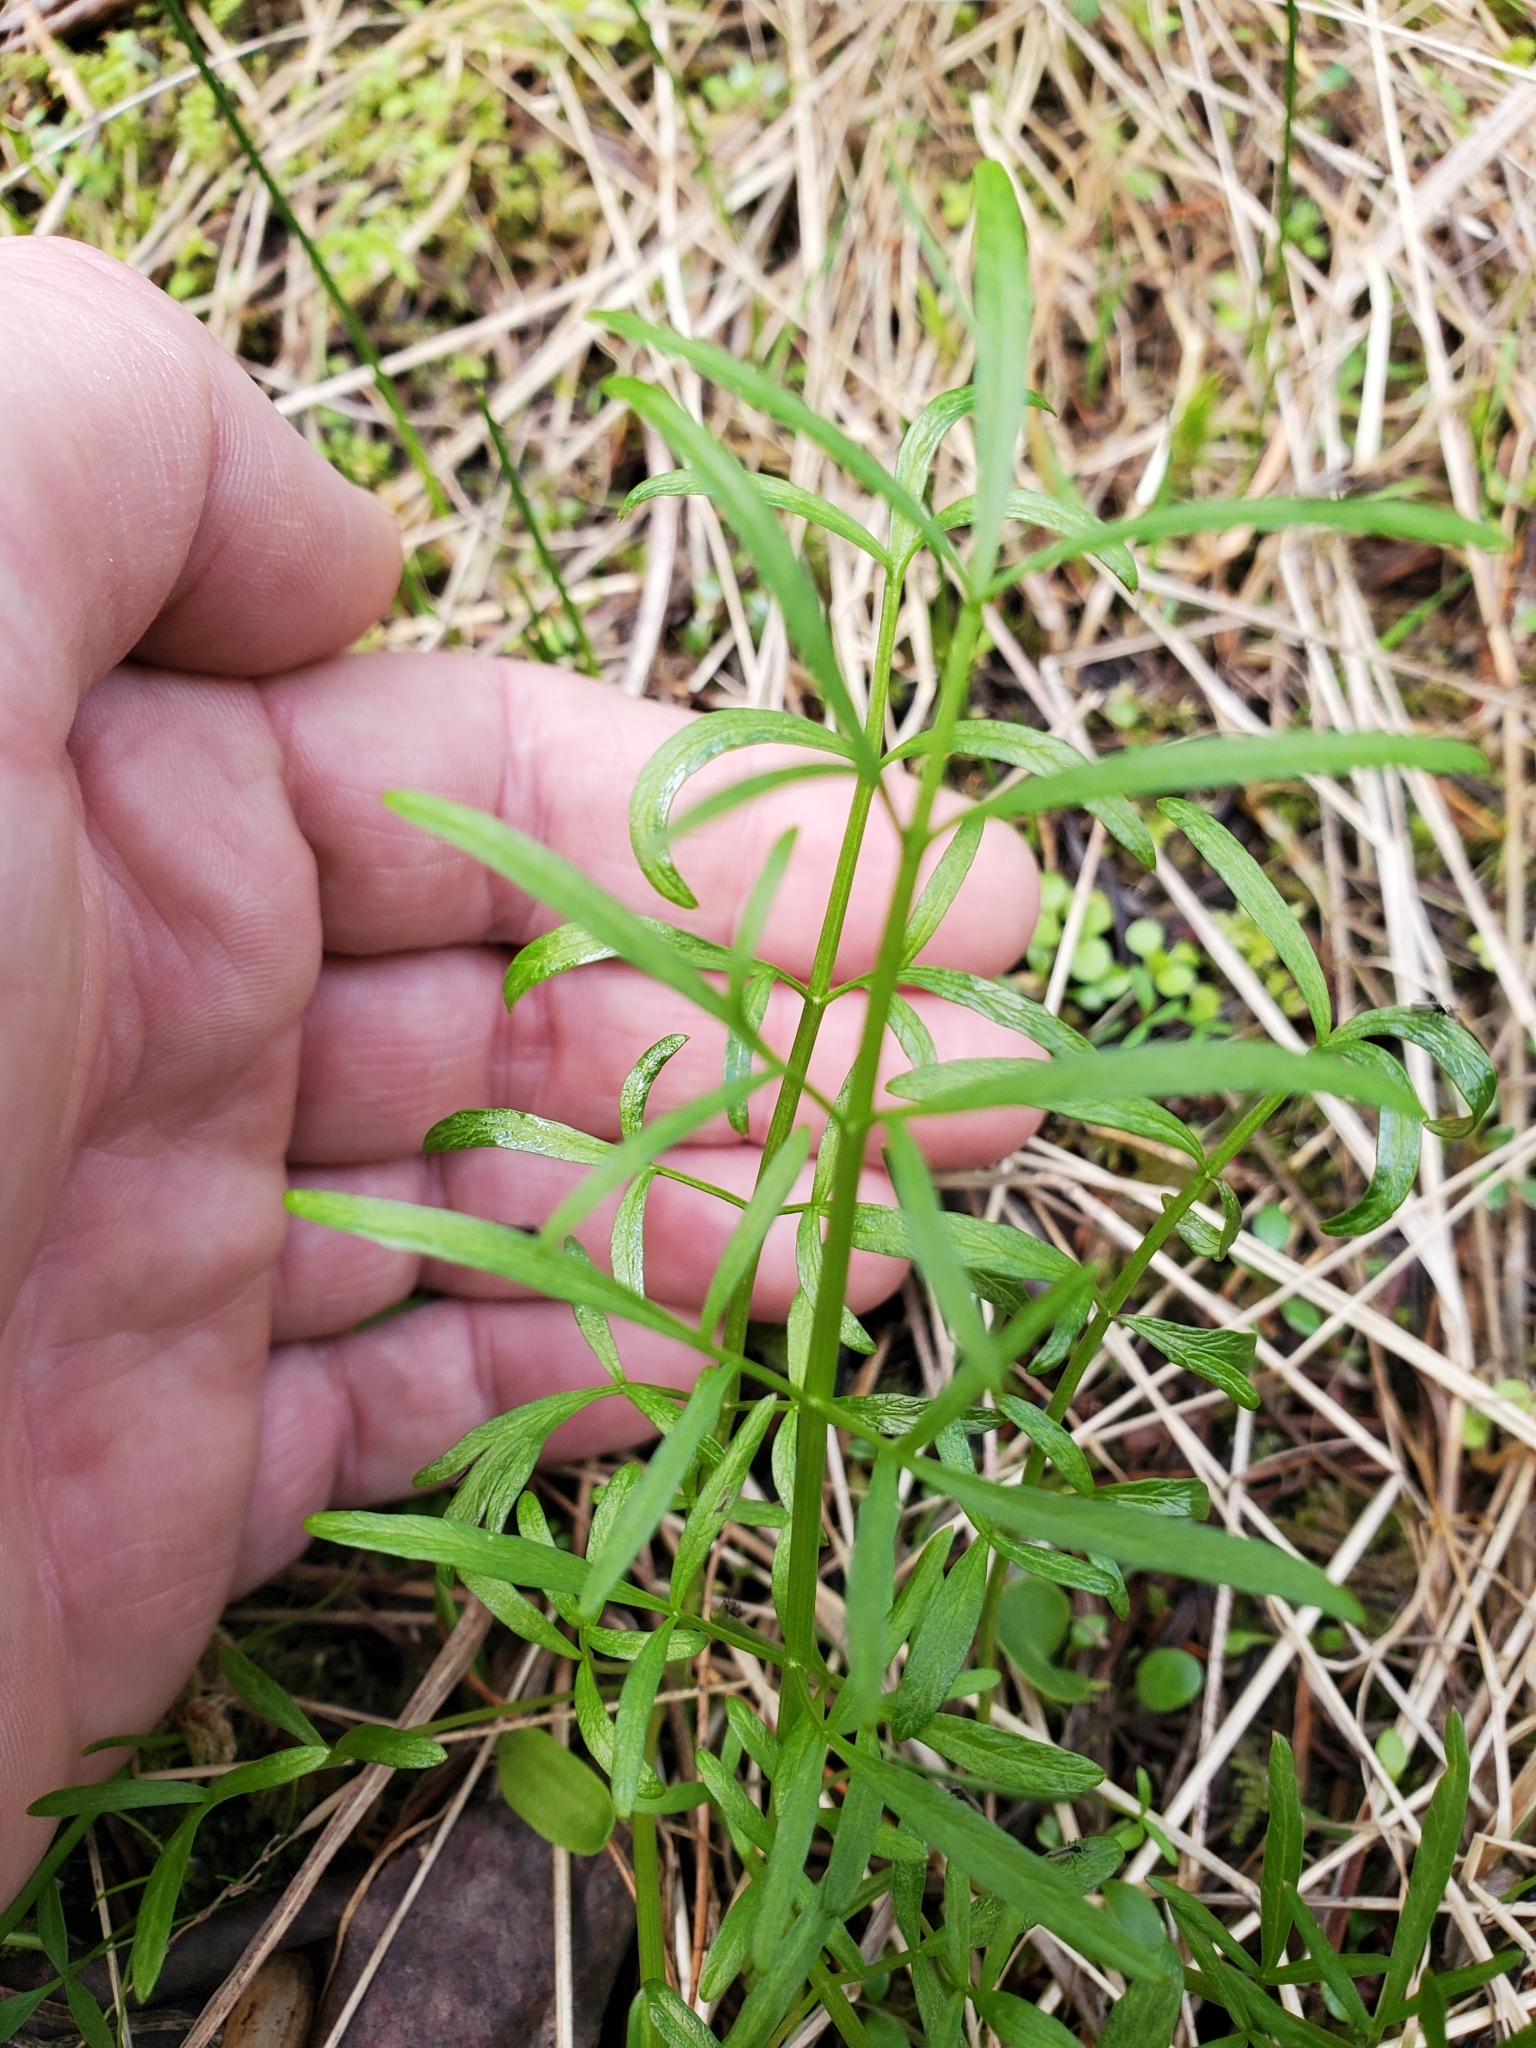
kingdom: Plantae
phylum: Tracheophyta
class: Magnoliopsida
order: Apiales
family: Apiaceae
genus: Perideridia
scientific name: Perideridia gairdneri
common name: False caraway
